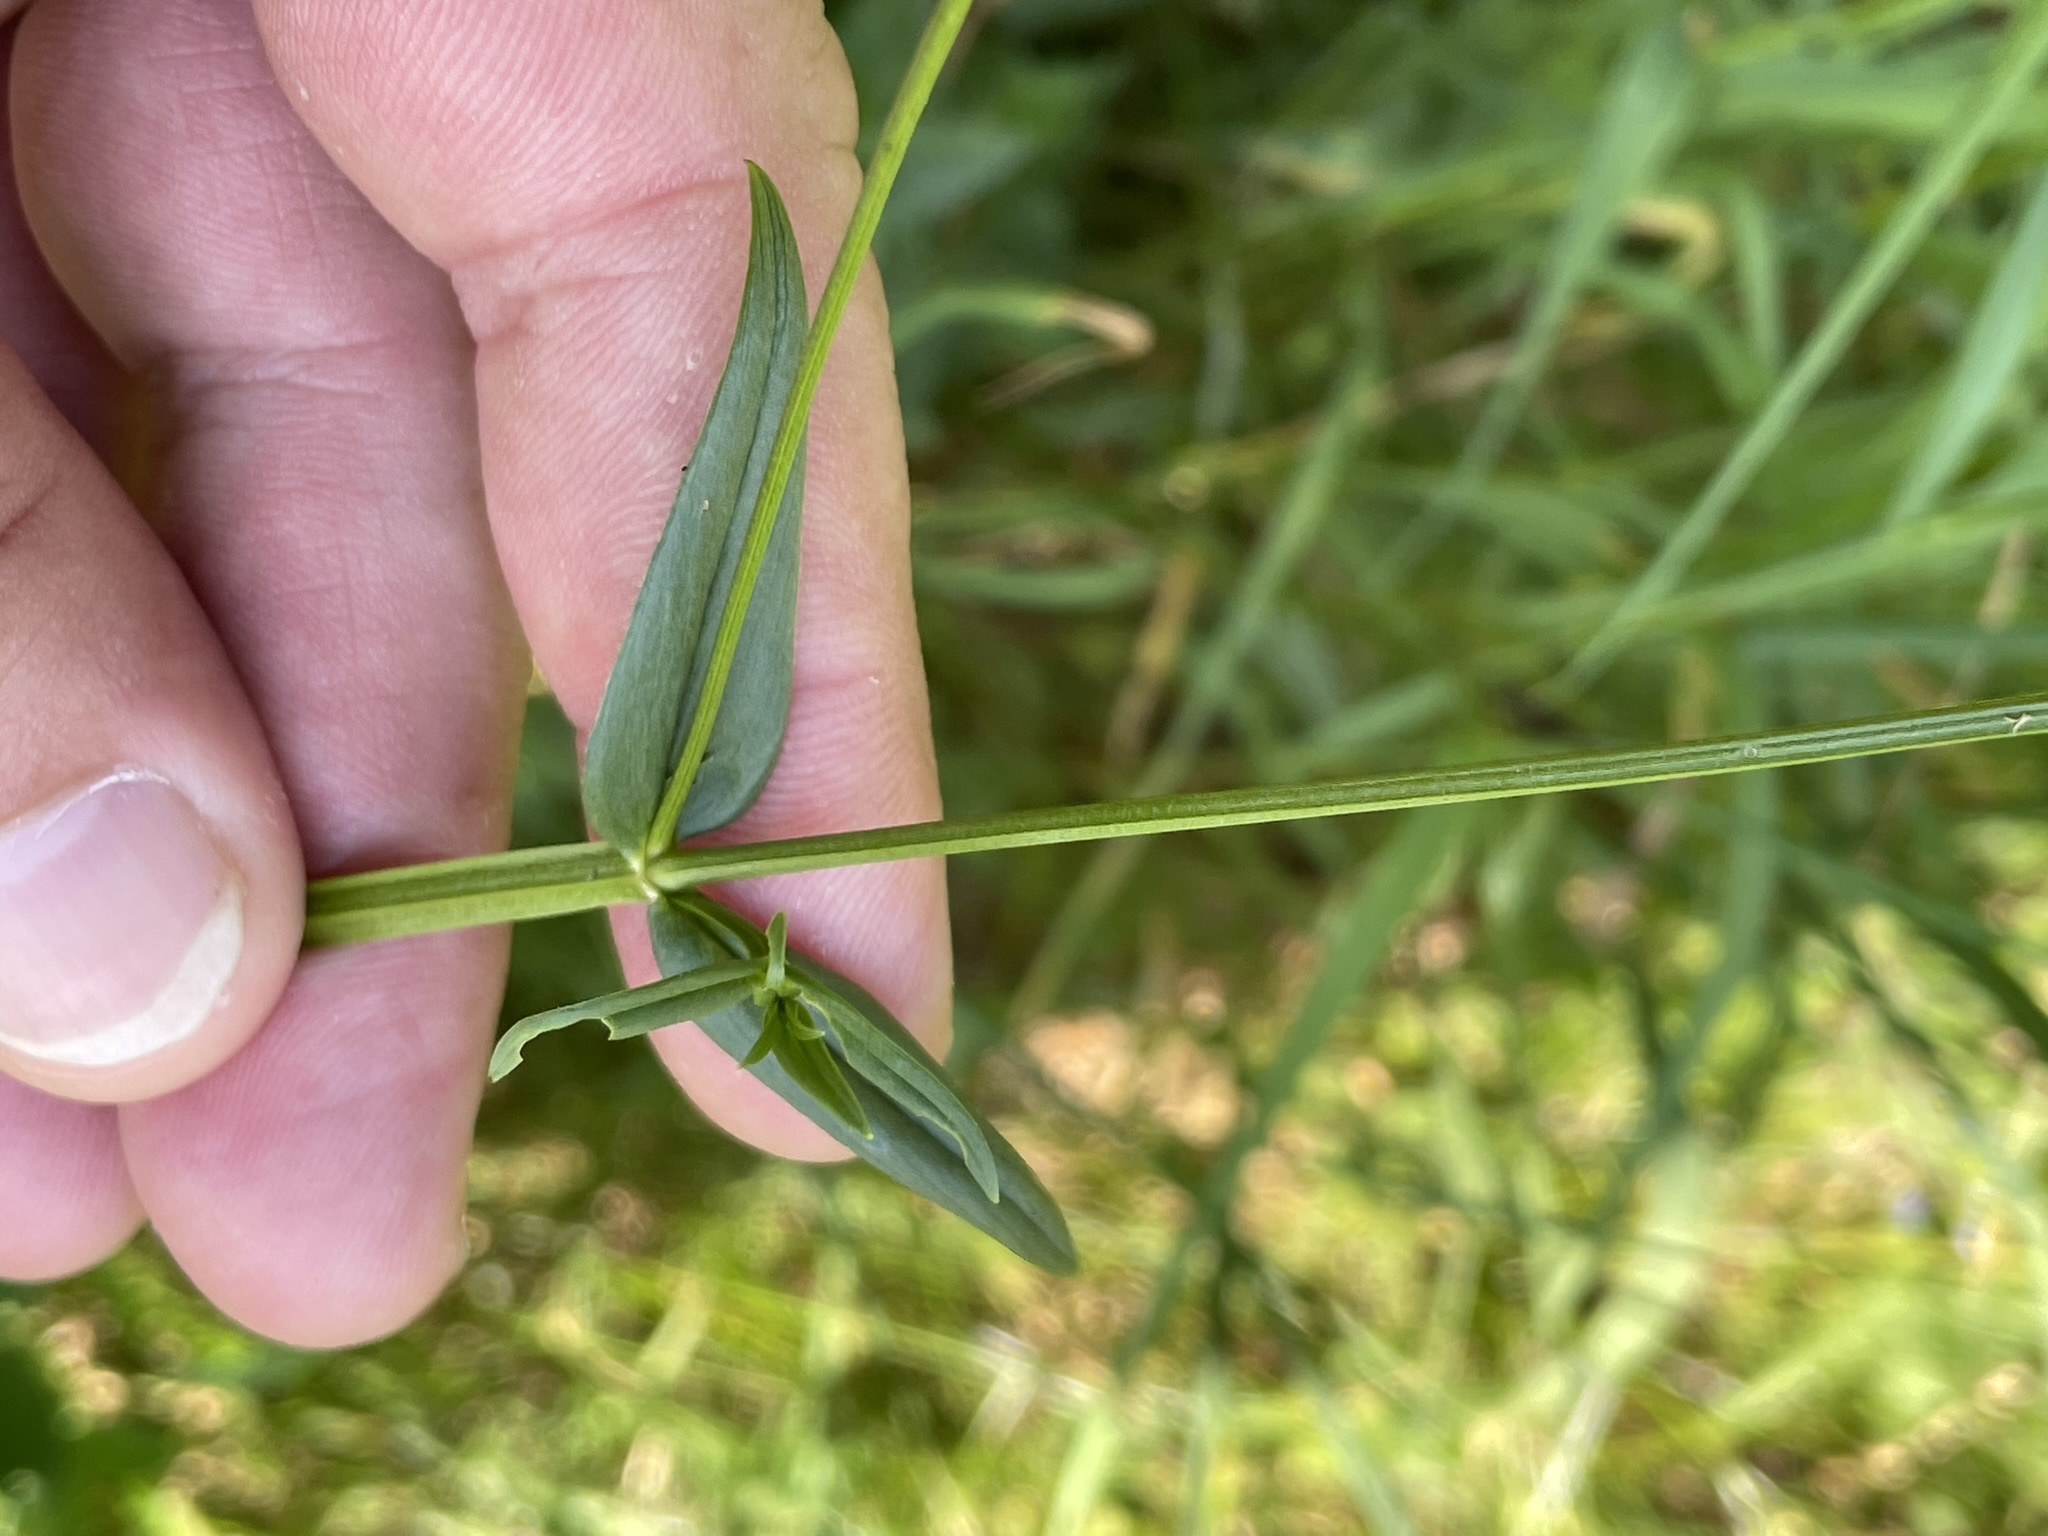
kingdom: Plantae
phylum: Tracheophyta
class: Magnoliopsida
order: Caryophyllales
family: Caryophyllaceae
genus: Stellaria
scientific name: Stellaria graminea
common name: Grass-like starwort
